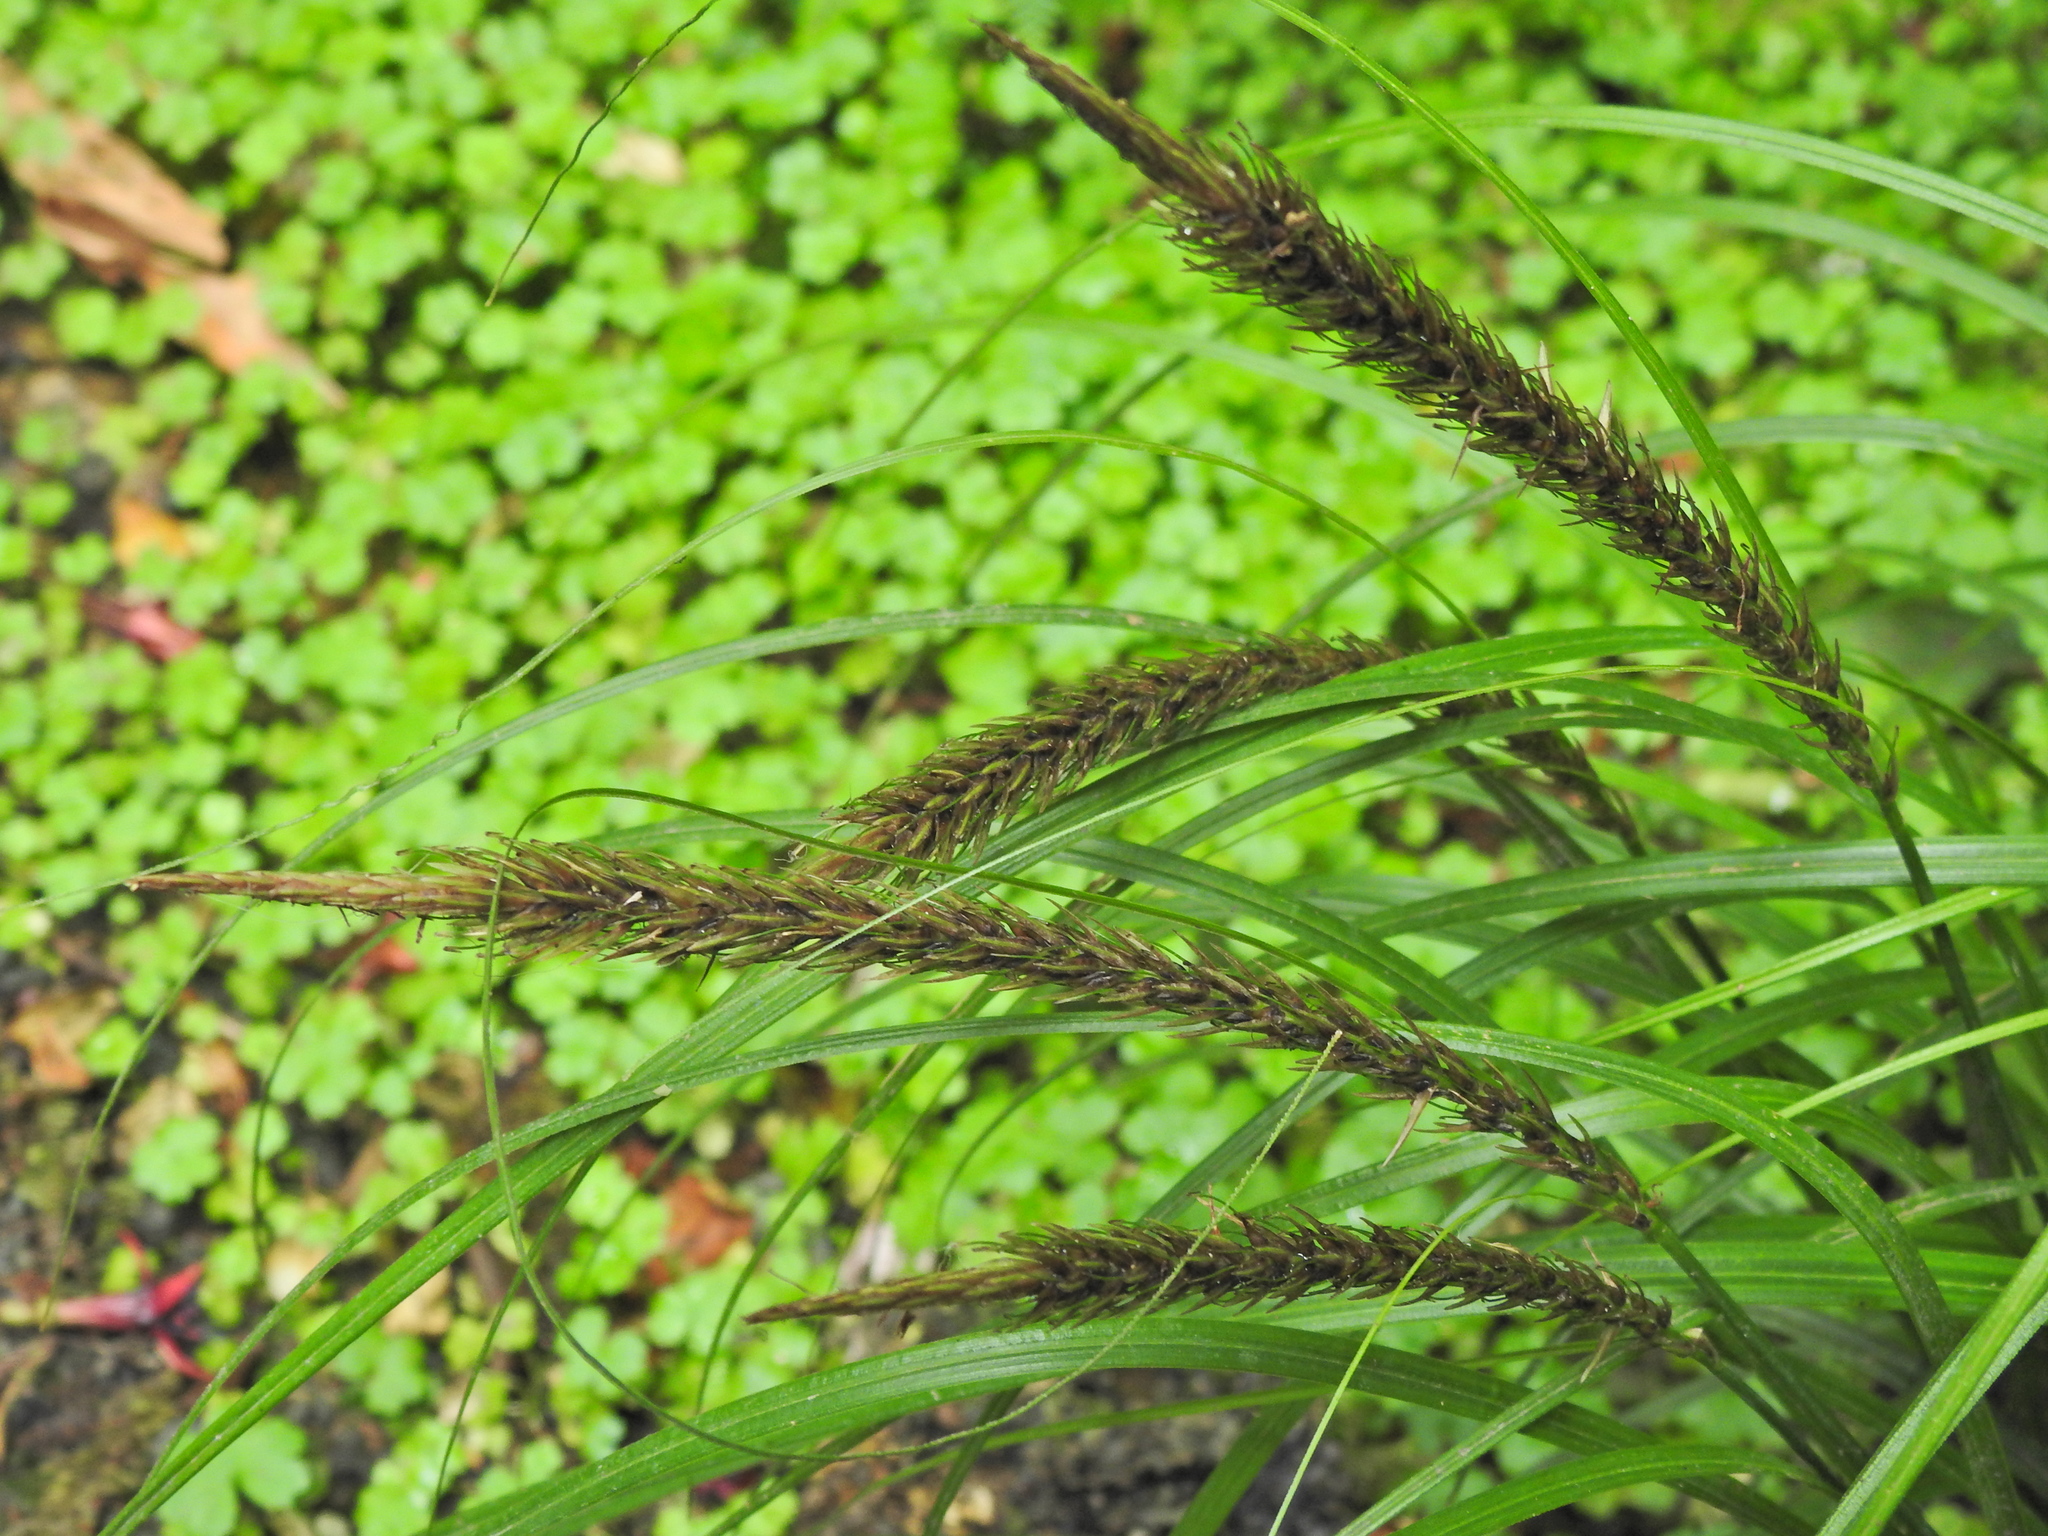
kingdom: Plantae
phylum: Tracheophyta
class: Liliopsida
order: Poales
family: Cyperaceae
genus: Carex
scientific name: Carex megalepis
